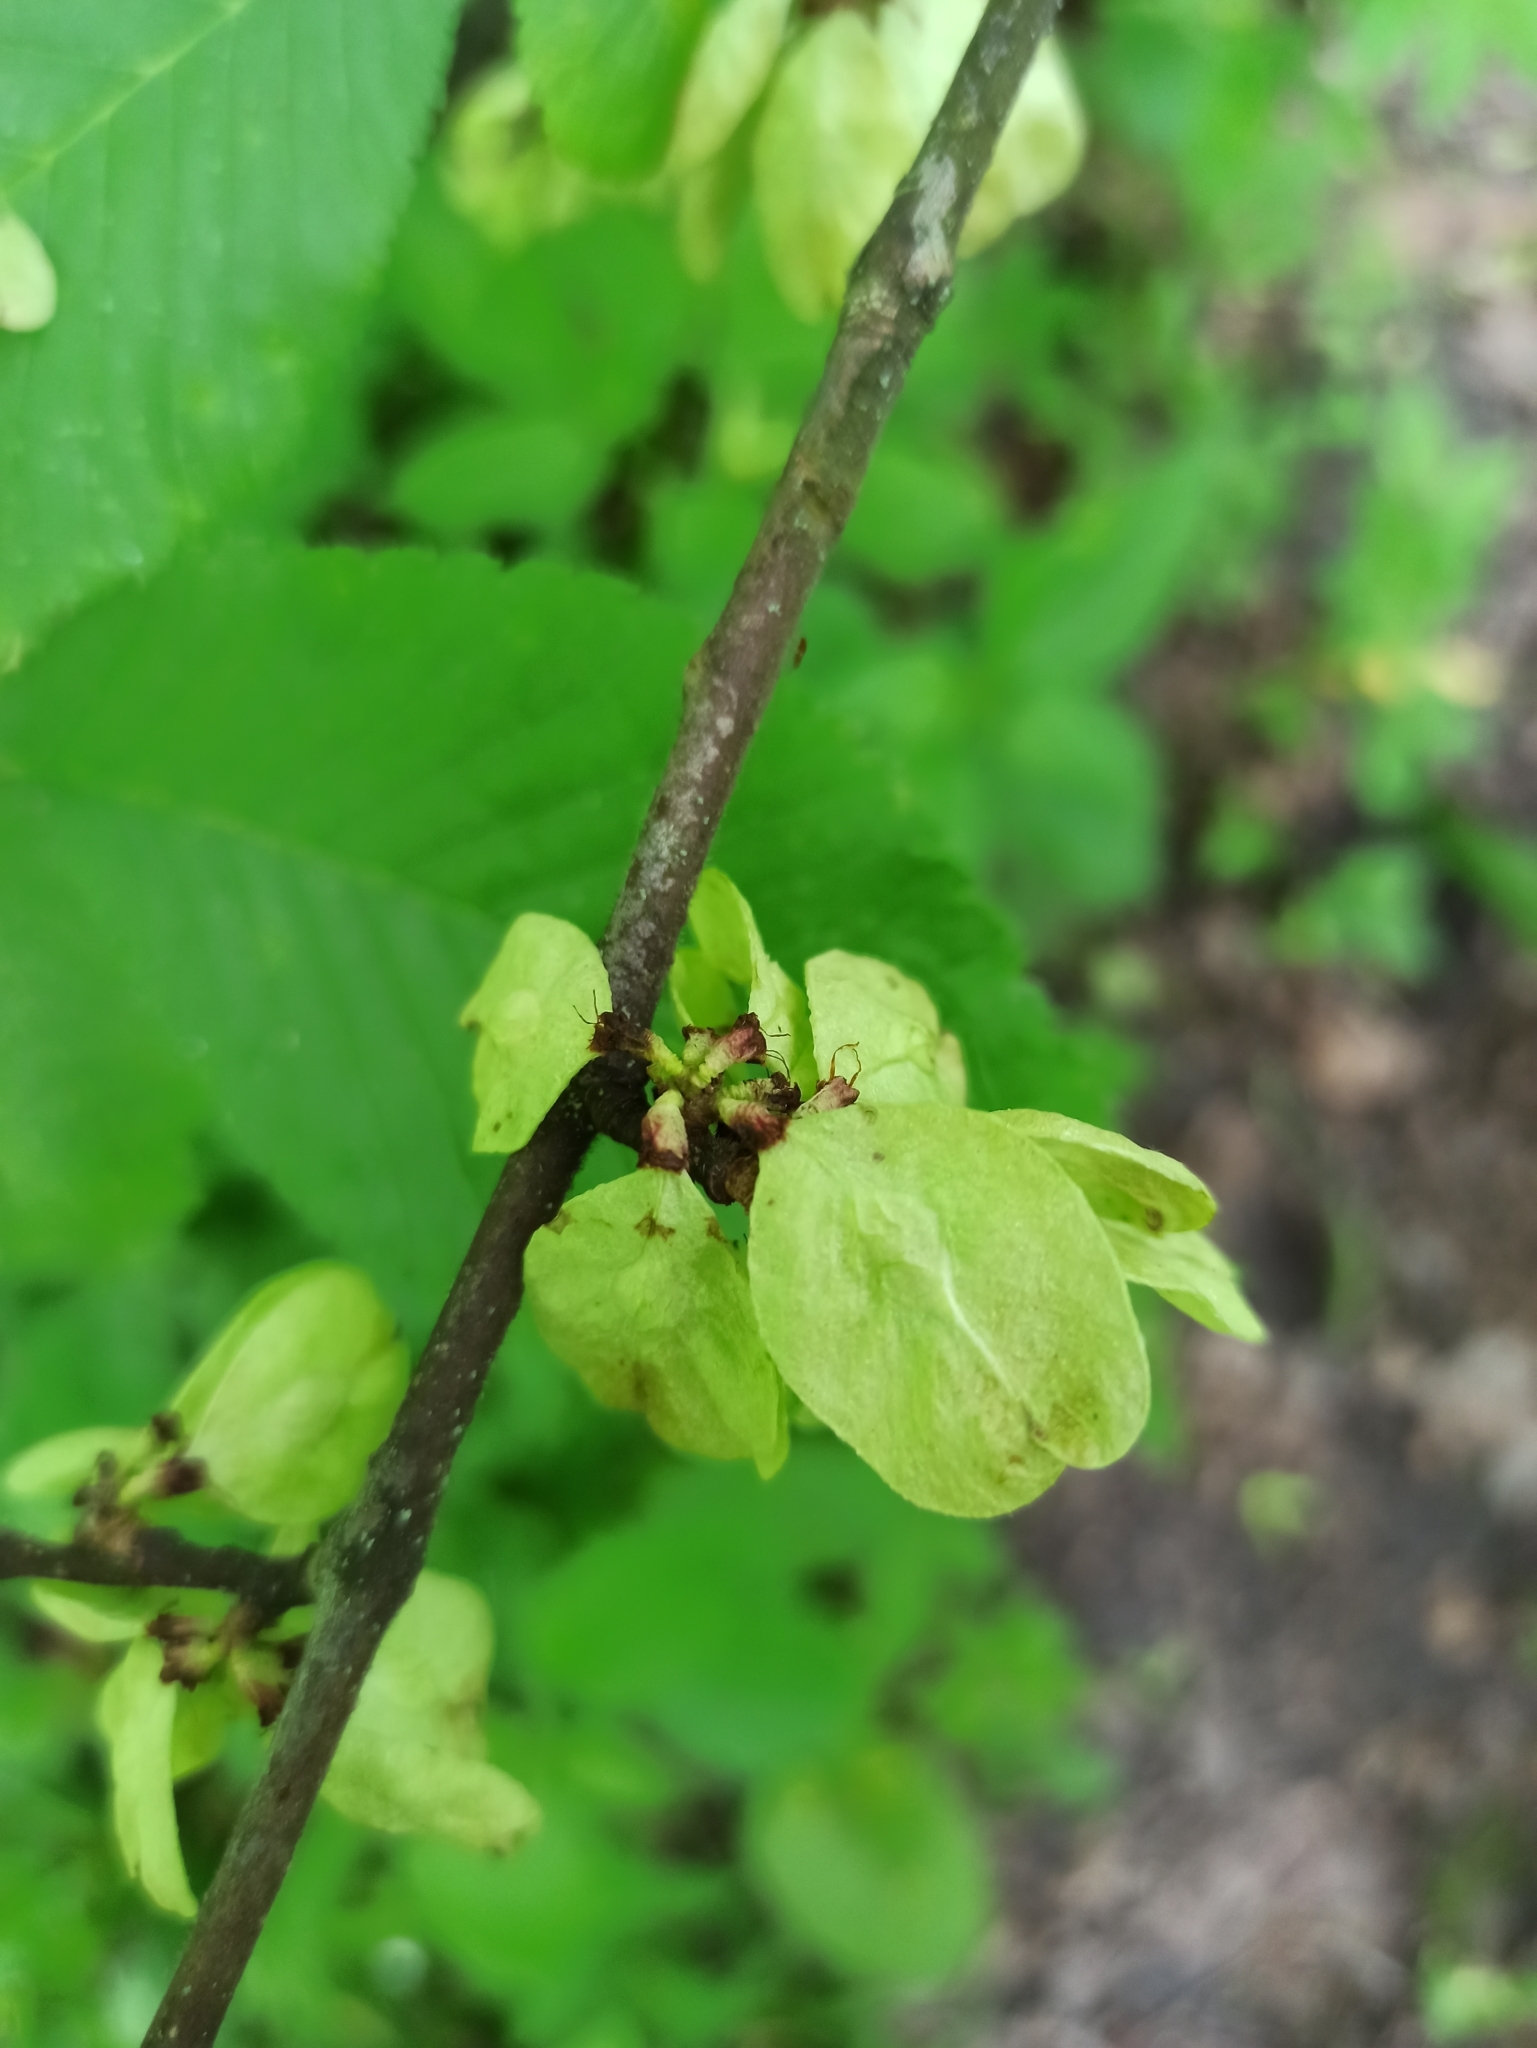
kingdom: Plantae
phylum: Tracheophyta
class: Magnoliopsida
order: Rosales
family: Ulmaceae
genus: Ulmus
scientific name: Ulmus glabra
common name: Wych elm
